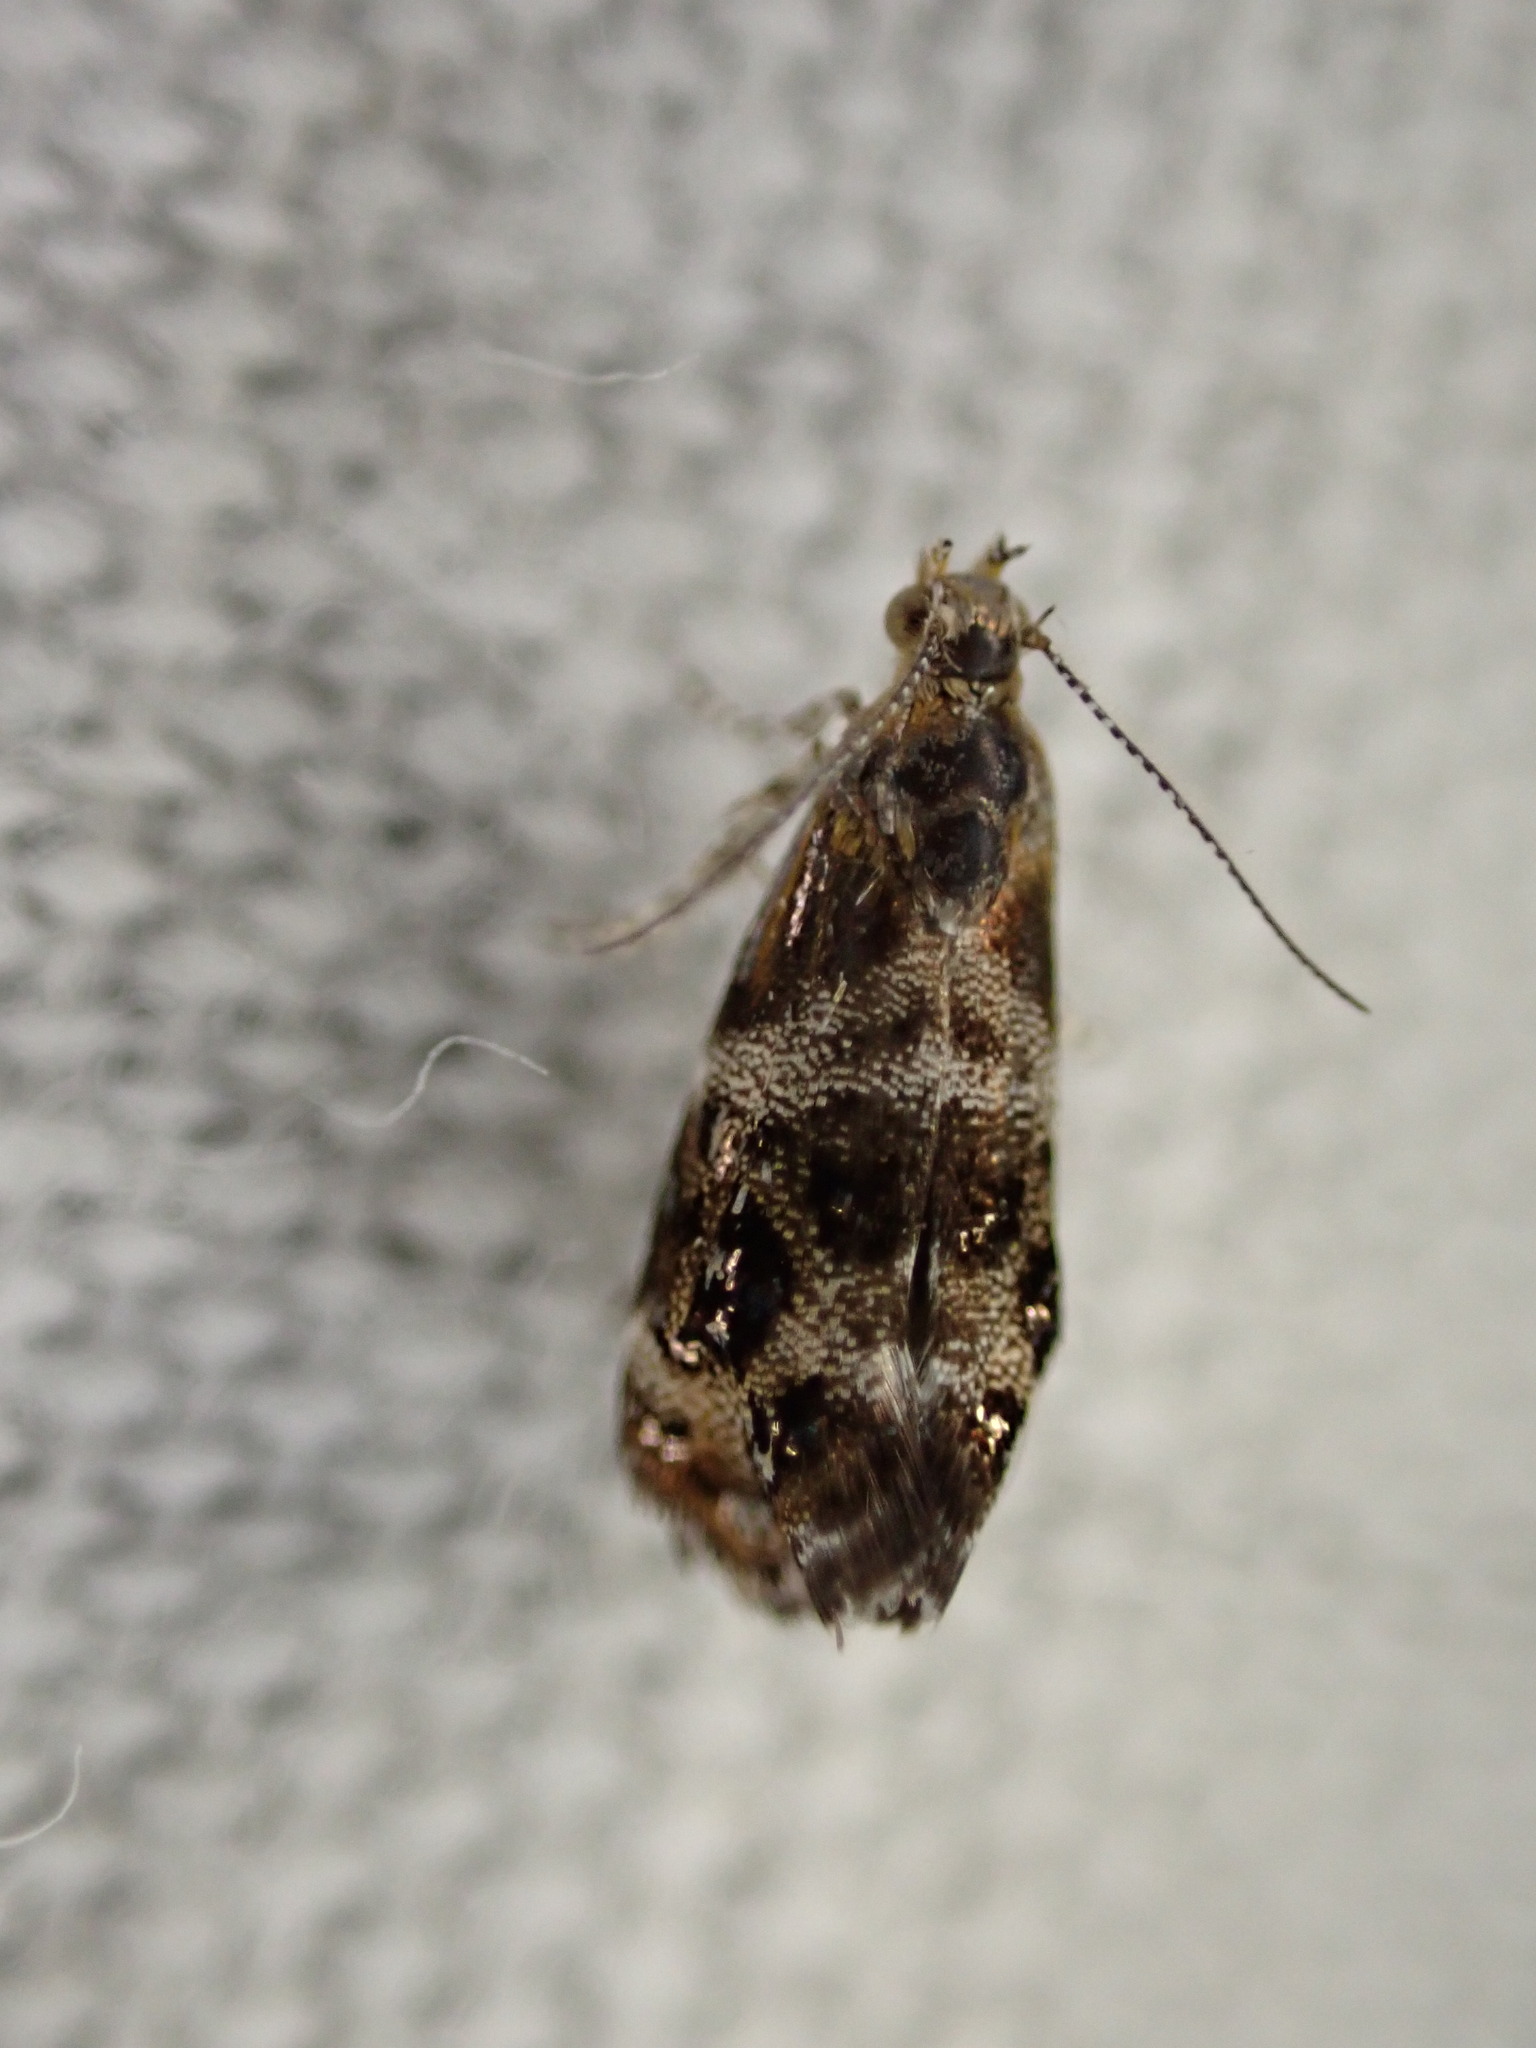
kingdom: Animalia
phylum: Arthropoda
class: Insecta
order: Lepidoptera
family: Choreutidae
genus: Tebenna
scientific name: Tebenna micalis
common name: Vagrant twitcher
